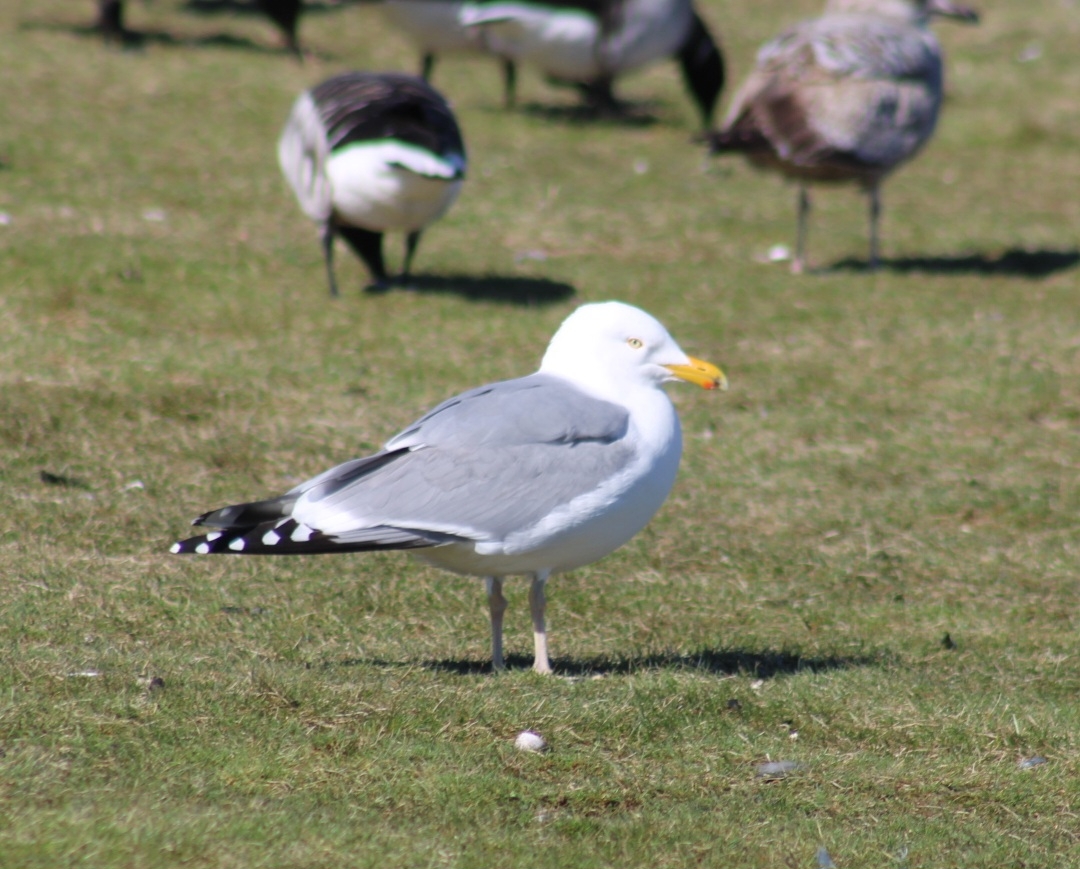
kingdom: Animalia
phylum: Chordata
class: Aves
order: Charadriiformes
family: Laridae
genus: Larus
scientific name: Larus argentatus
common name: Herring gull
